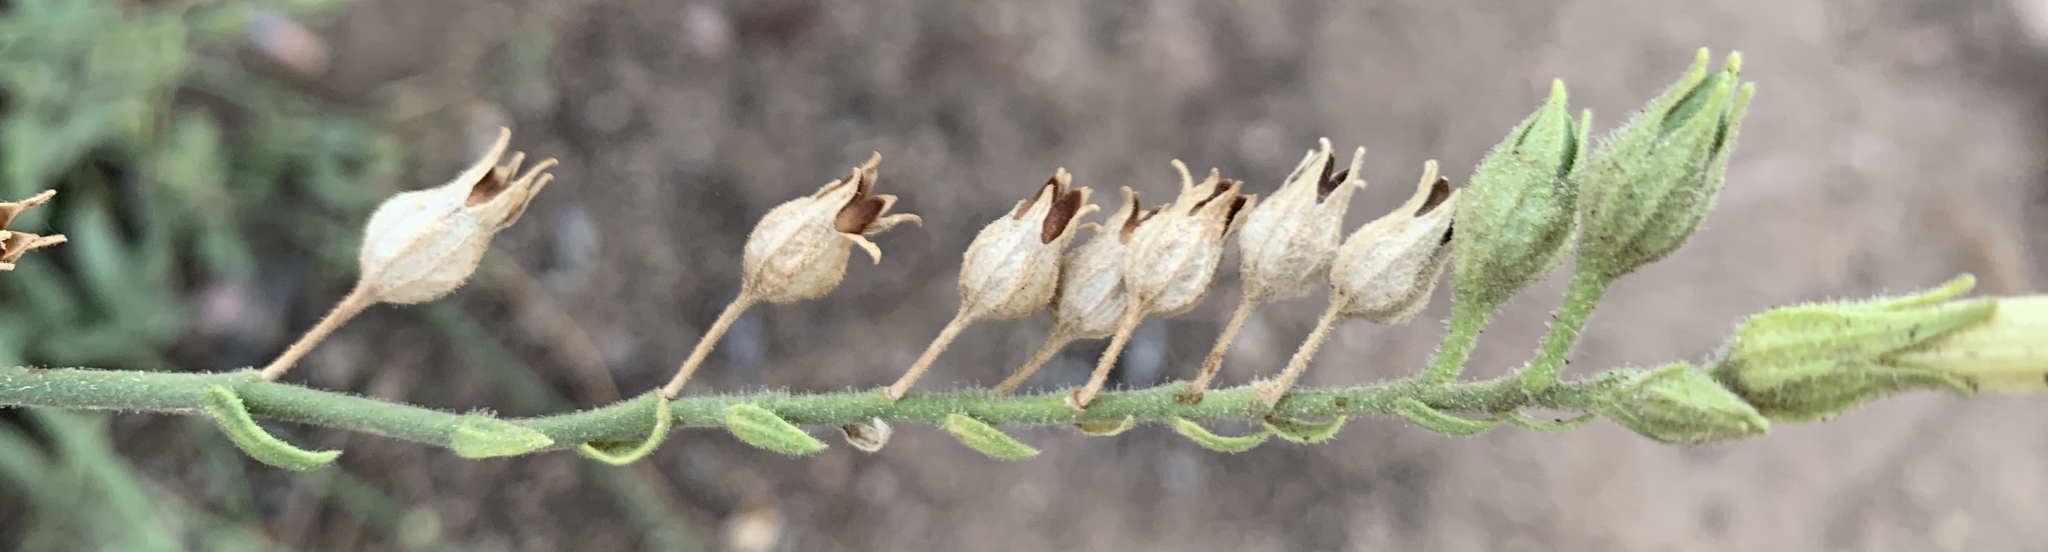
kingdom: Plantae
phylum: Tracheophyta
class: Magnoliopsida
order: Solanales
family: Solanaceae
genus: Nicotiana
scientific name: Nicotiana obtusifolia
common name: Desert tobacco
